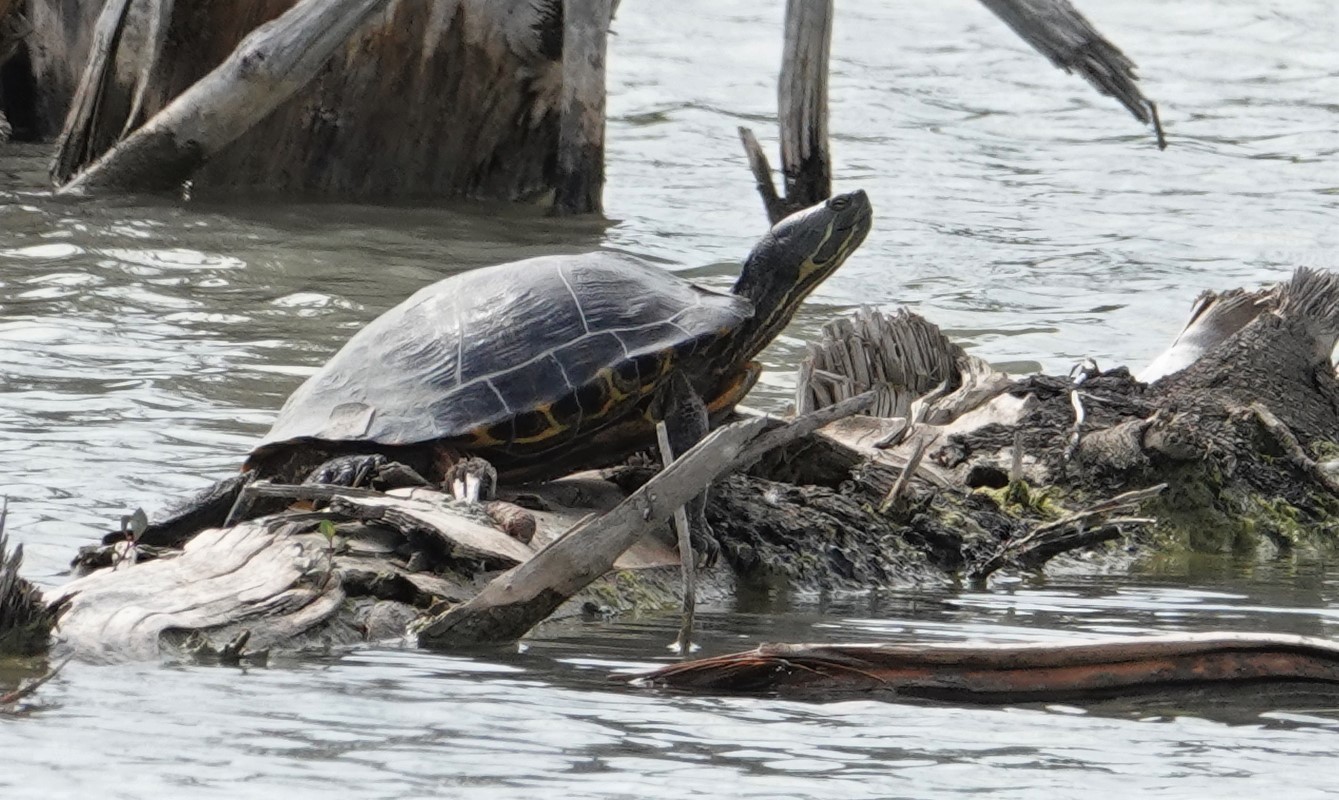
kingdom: Animalia
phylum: Chordata
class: Testudines
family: Emydidae
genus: Trachemys
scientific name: Trachemys scripta
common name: Slider
